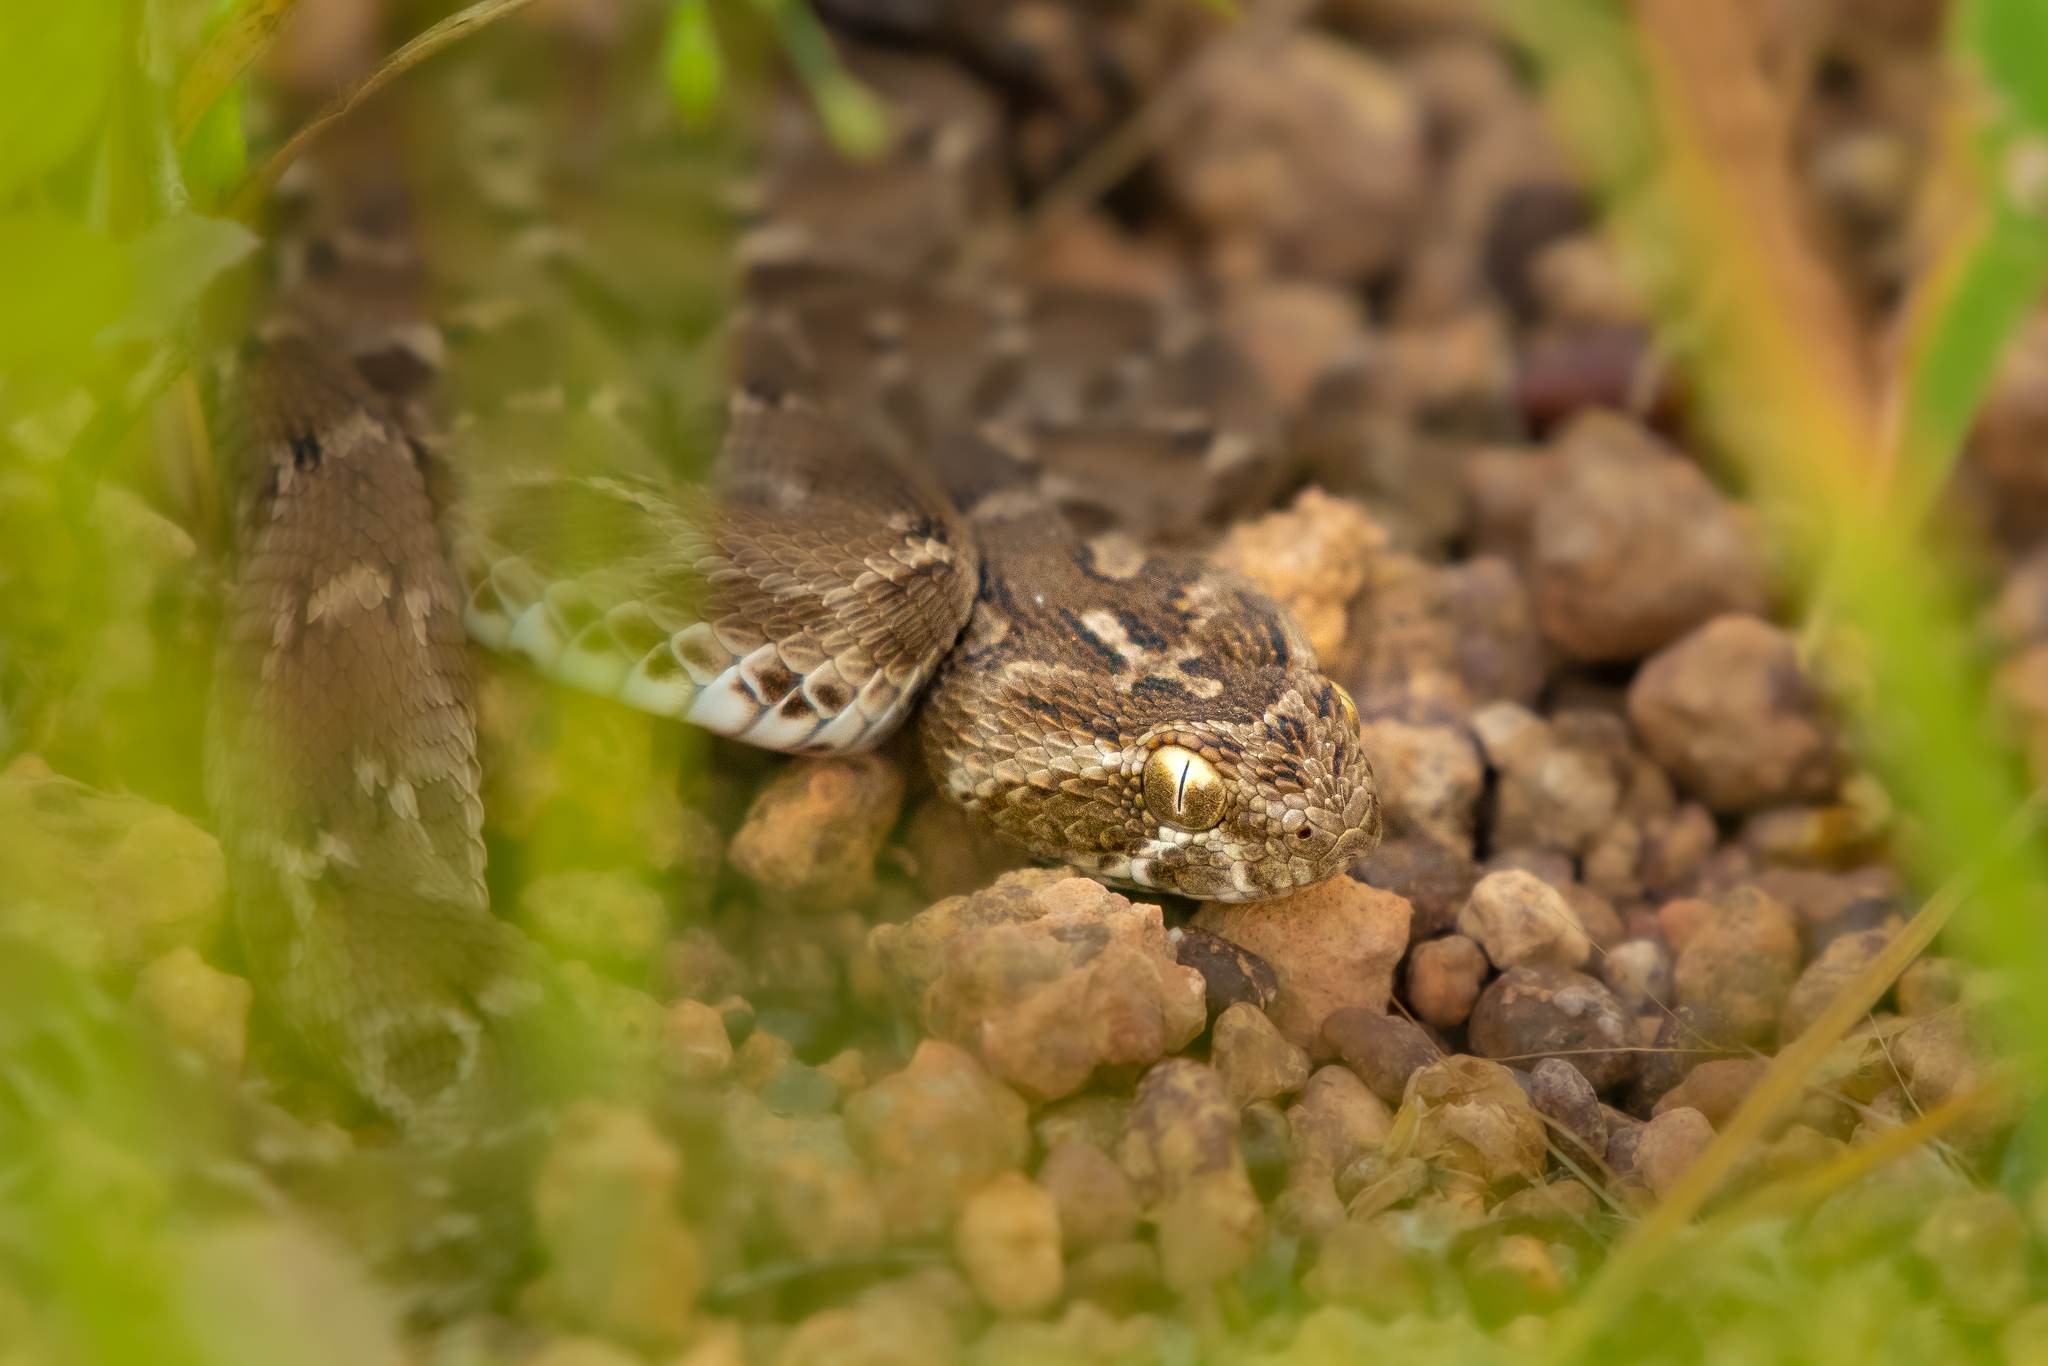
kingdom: Animalia
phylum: Chordata
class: Squamata
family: Viperidae
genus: Echis
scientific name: Echis carinatus
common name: Saw-scaled viper
